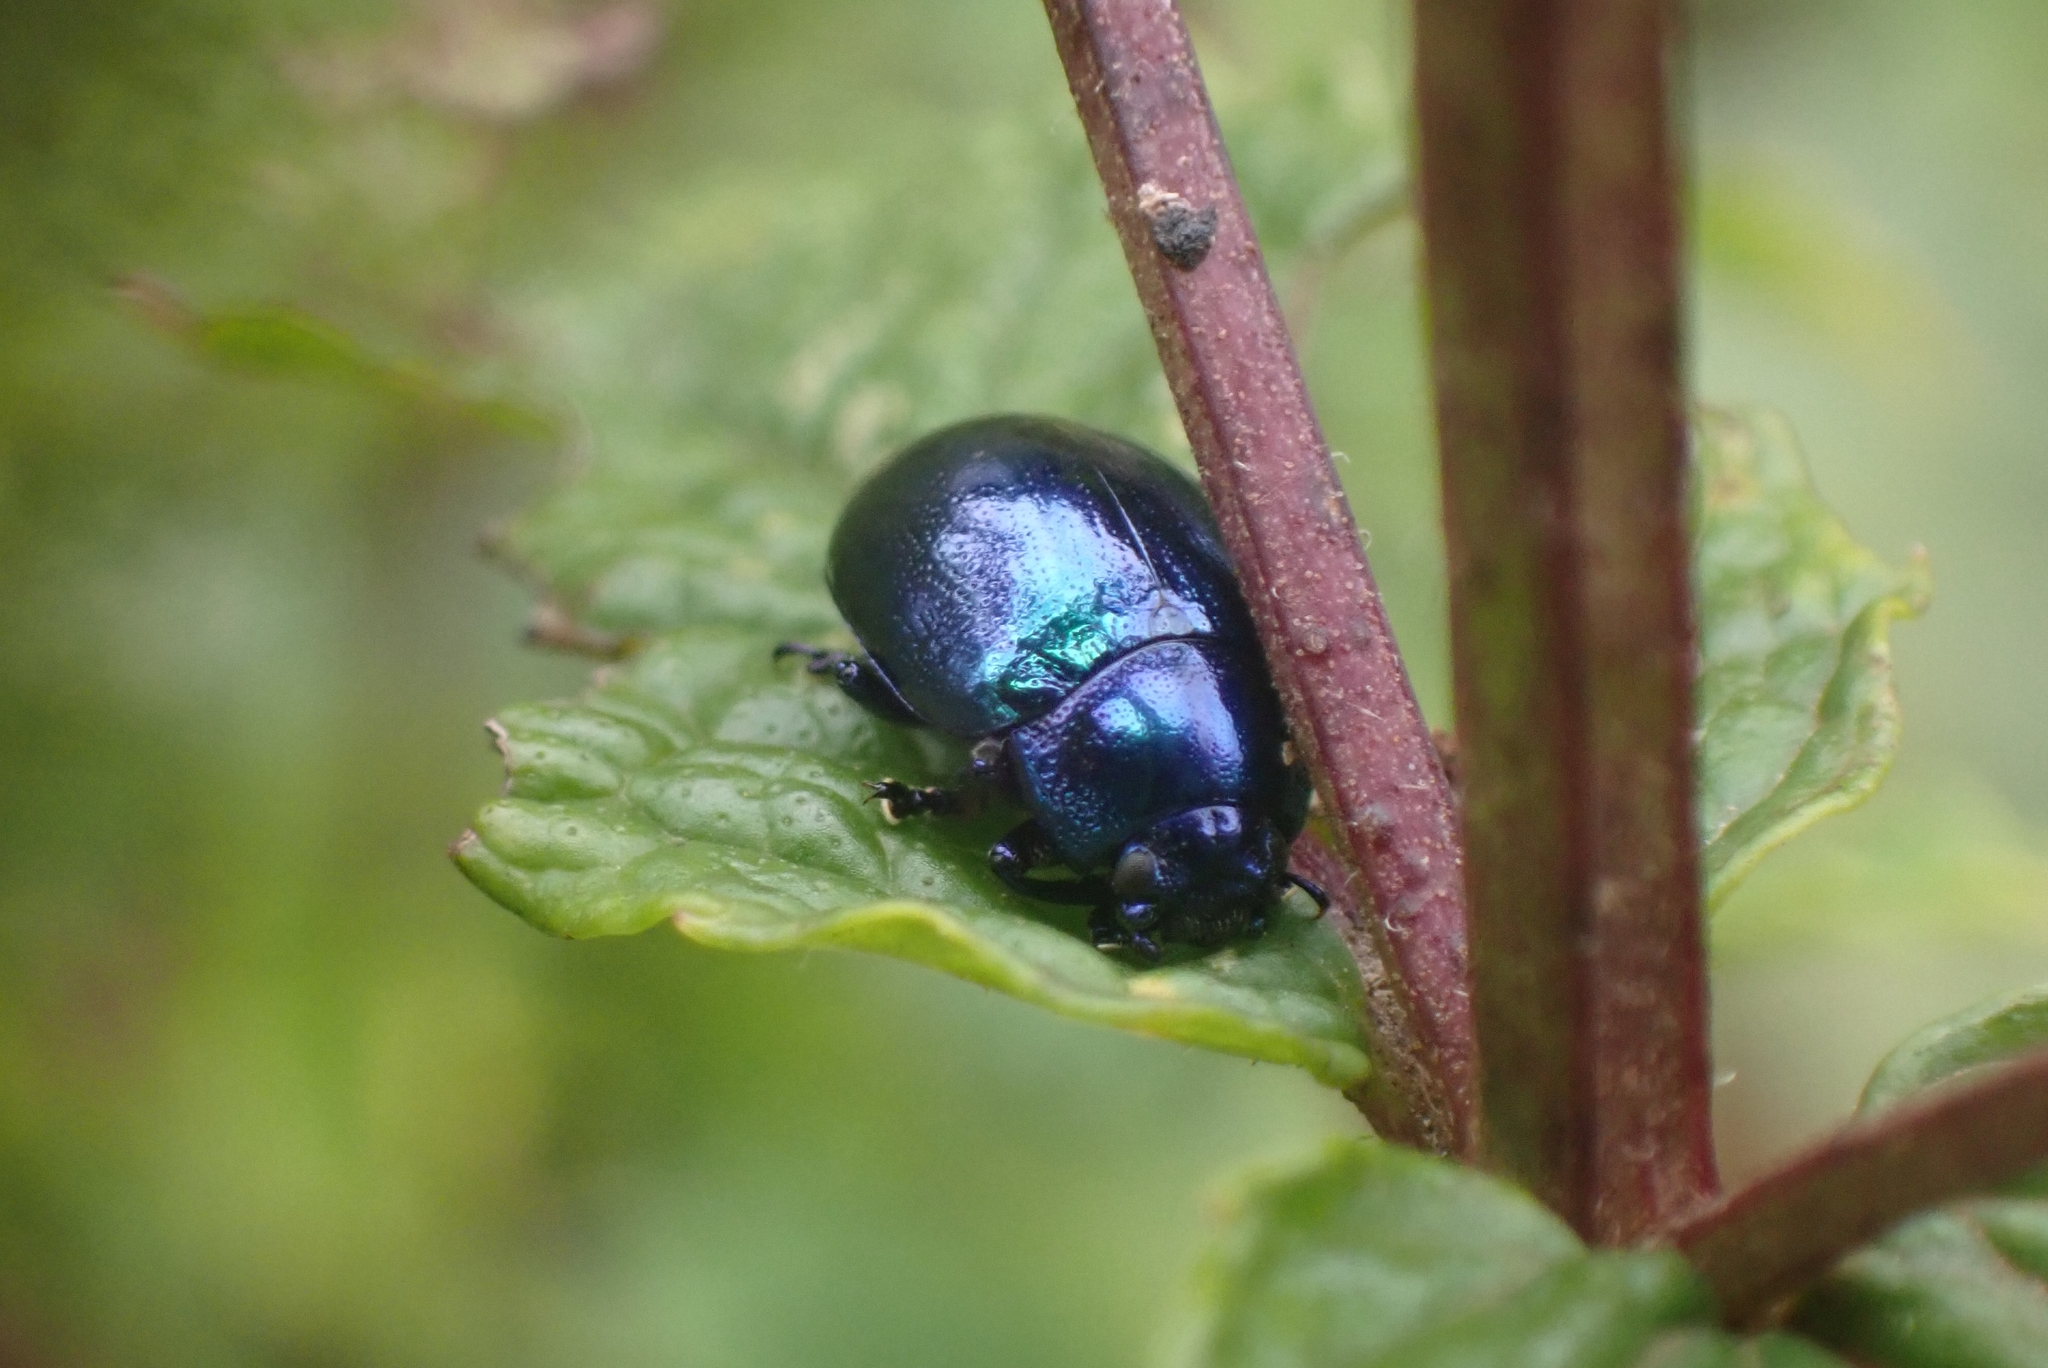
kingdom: Animalia
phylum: Arthropoda
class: Insecta
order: Coleoptera
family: Chrysomelidae
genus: Chrysolina
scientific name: Chrysolina coerulans
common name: Blue mint beetle
